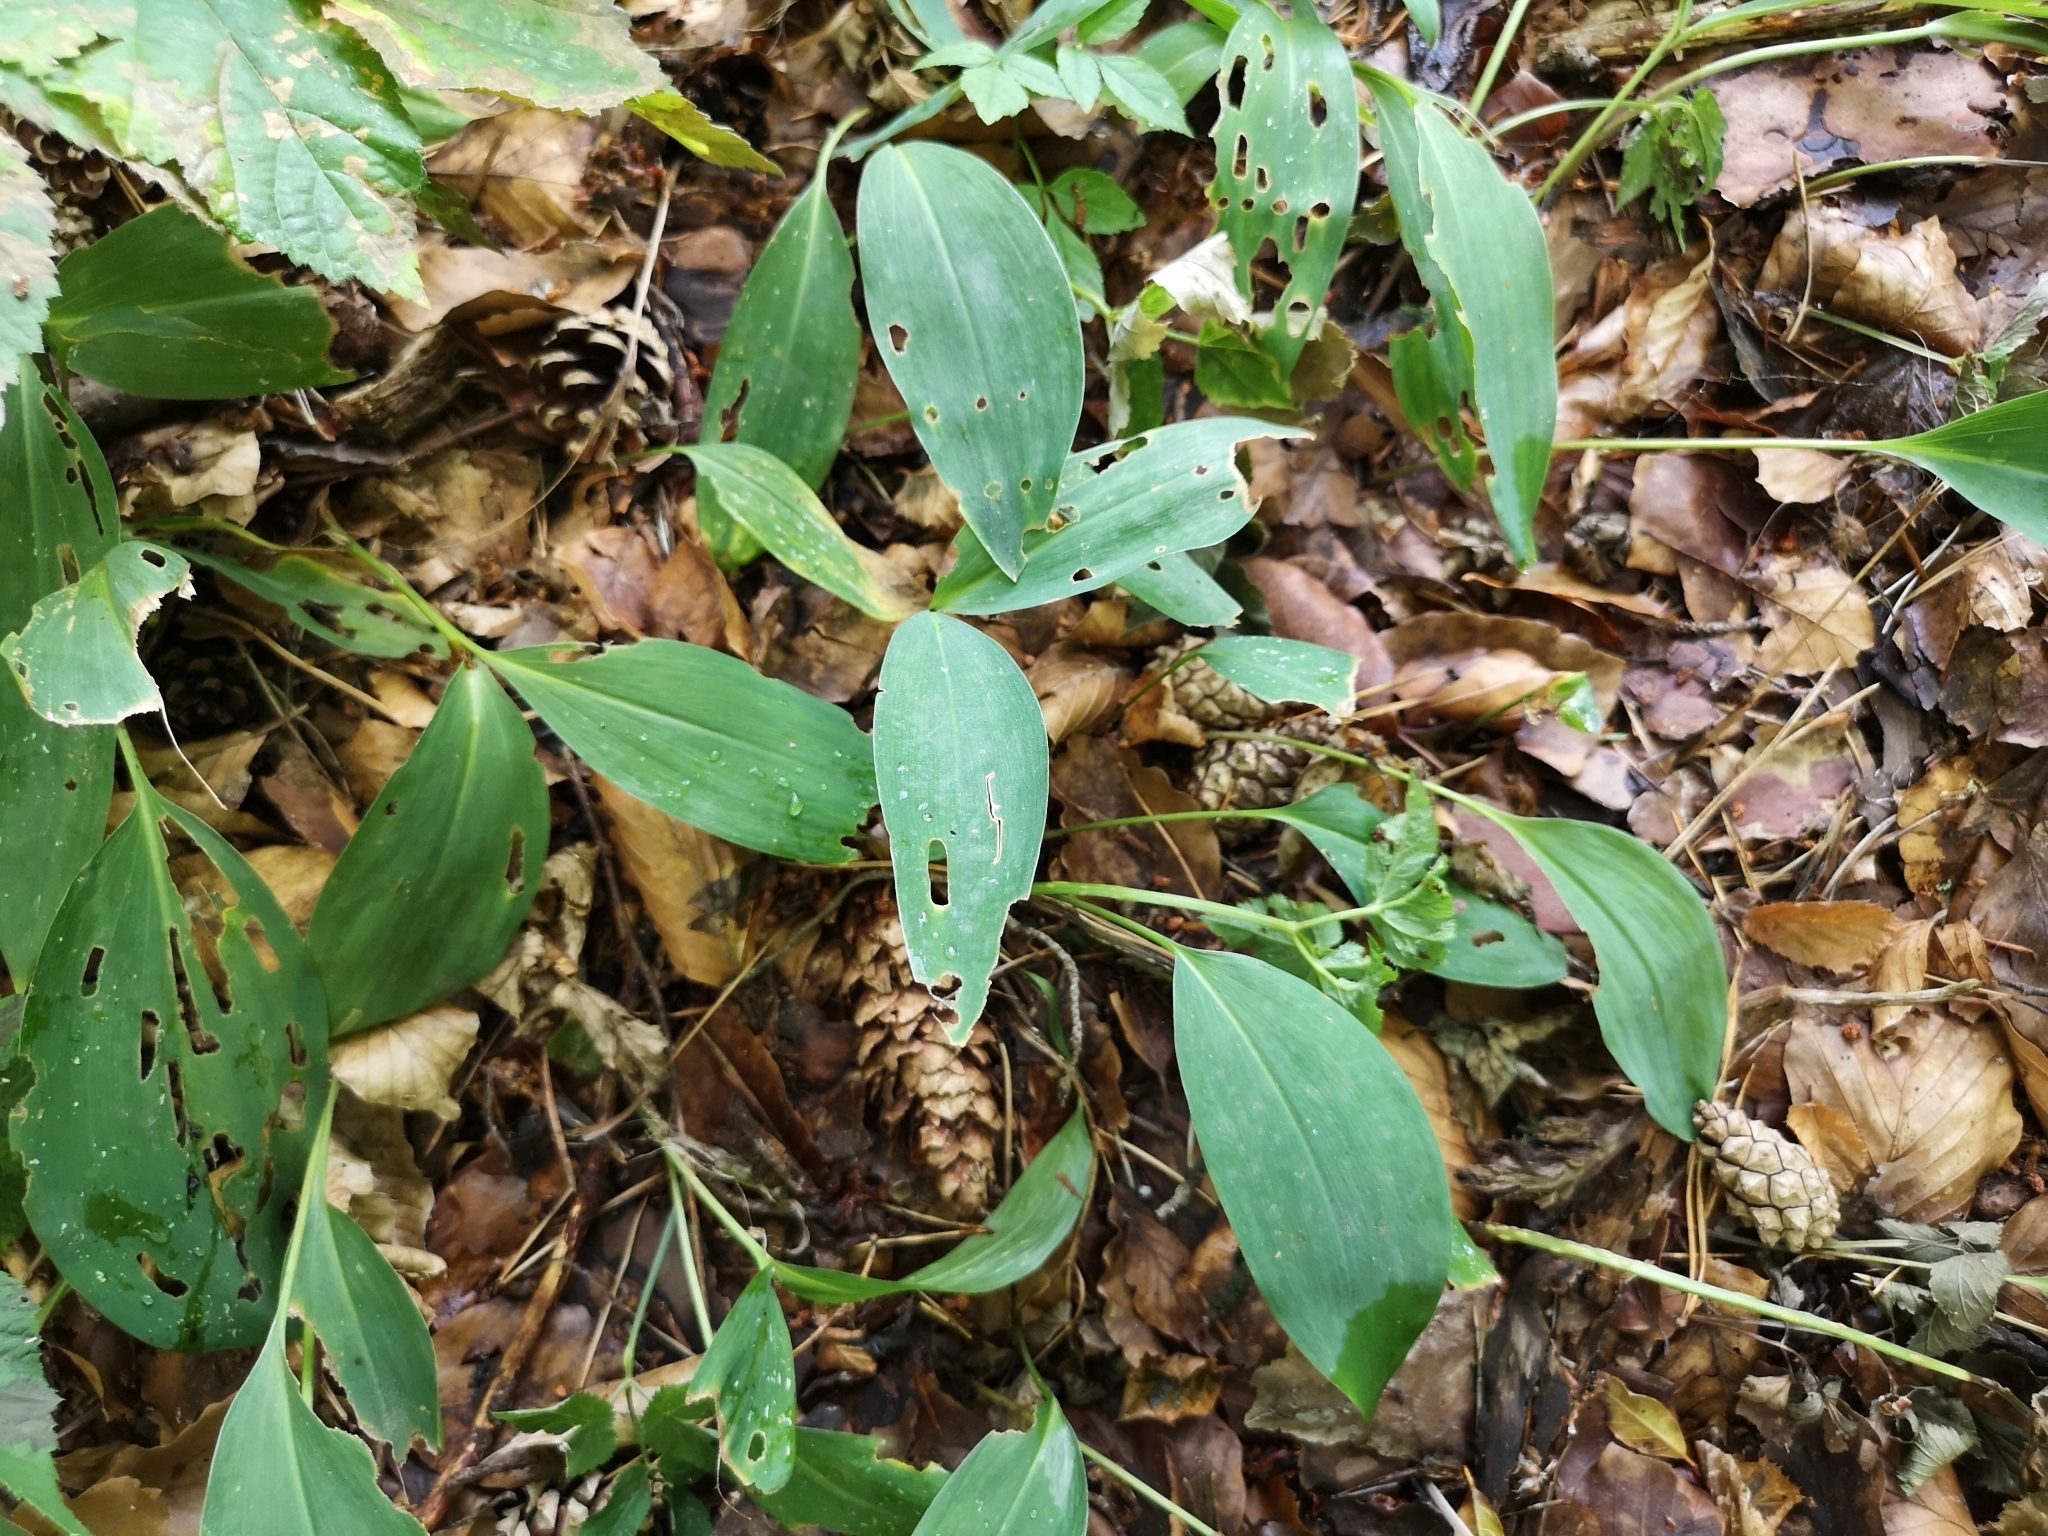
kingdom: Plantae
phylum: Tracheophyta
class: Liliopsida
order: Asparagales
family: Asparagaceae
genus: Convallaria
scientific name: Convallaria majalis
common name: Lily-of-the-valley
